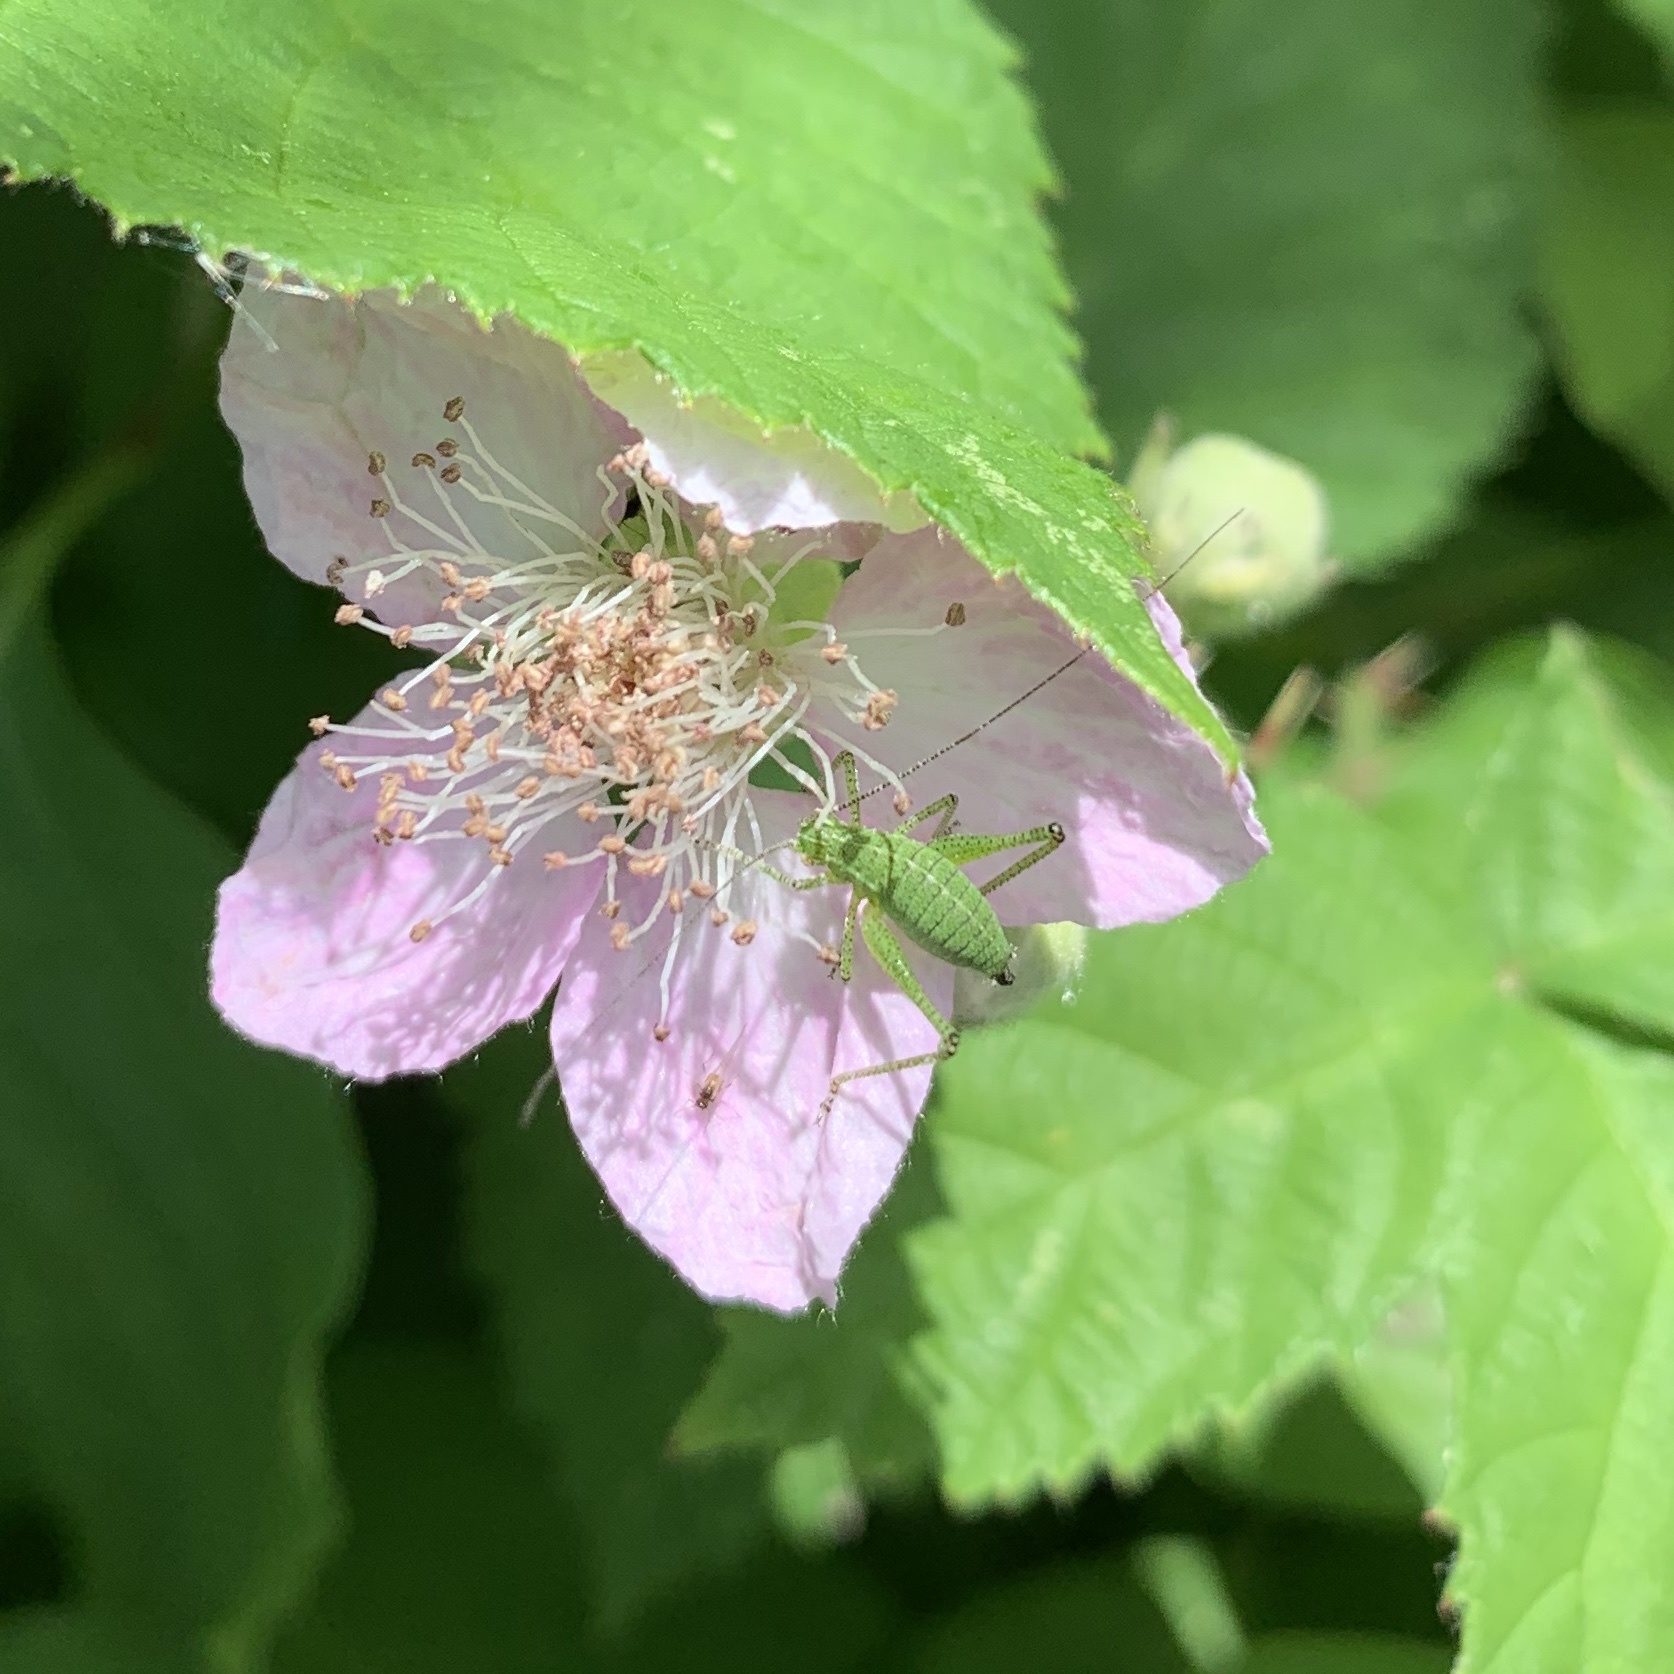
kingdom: Animalia
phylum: Arthropoda
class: Insecta
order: Orthoptera
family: Tettigoniidae
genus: Leptophyes
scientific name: Leptophyes punctatissima
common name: Speckled bush-cricket
